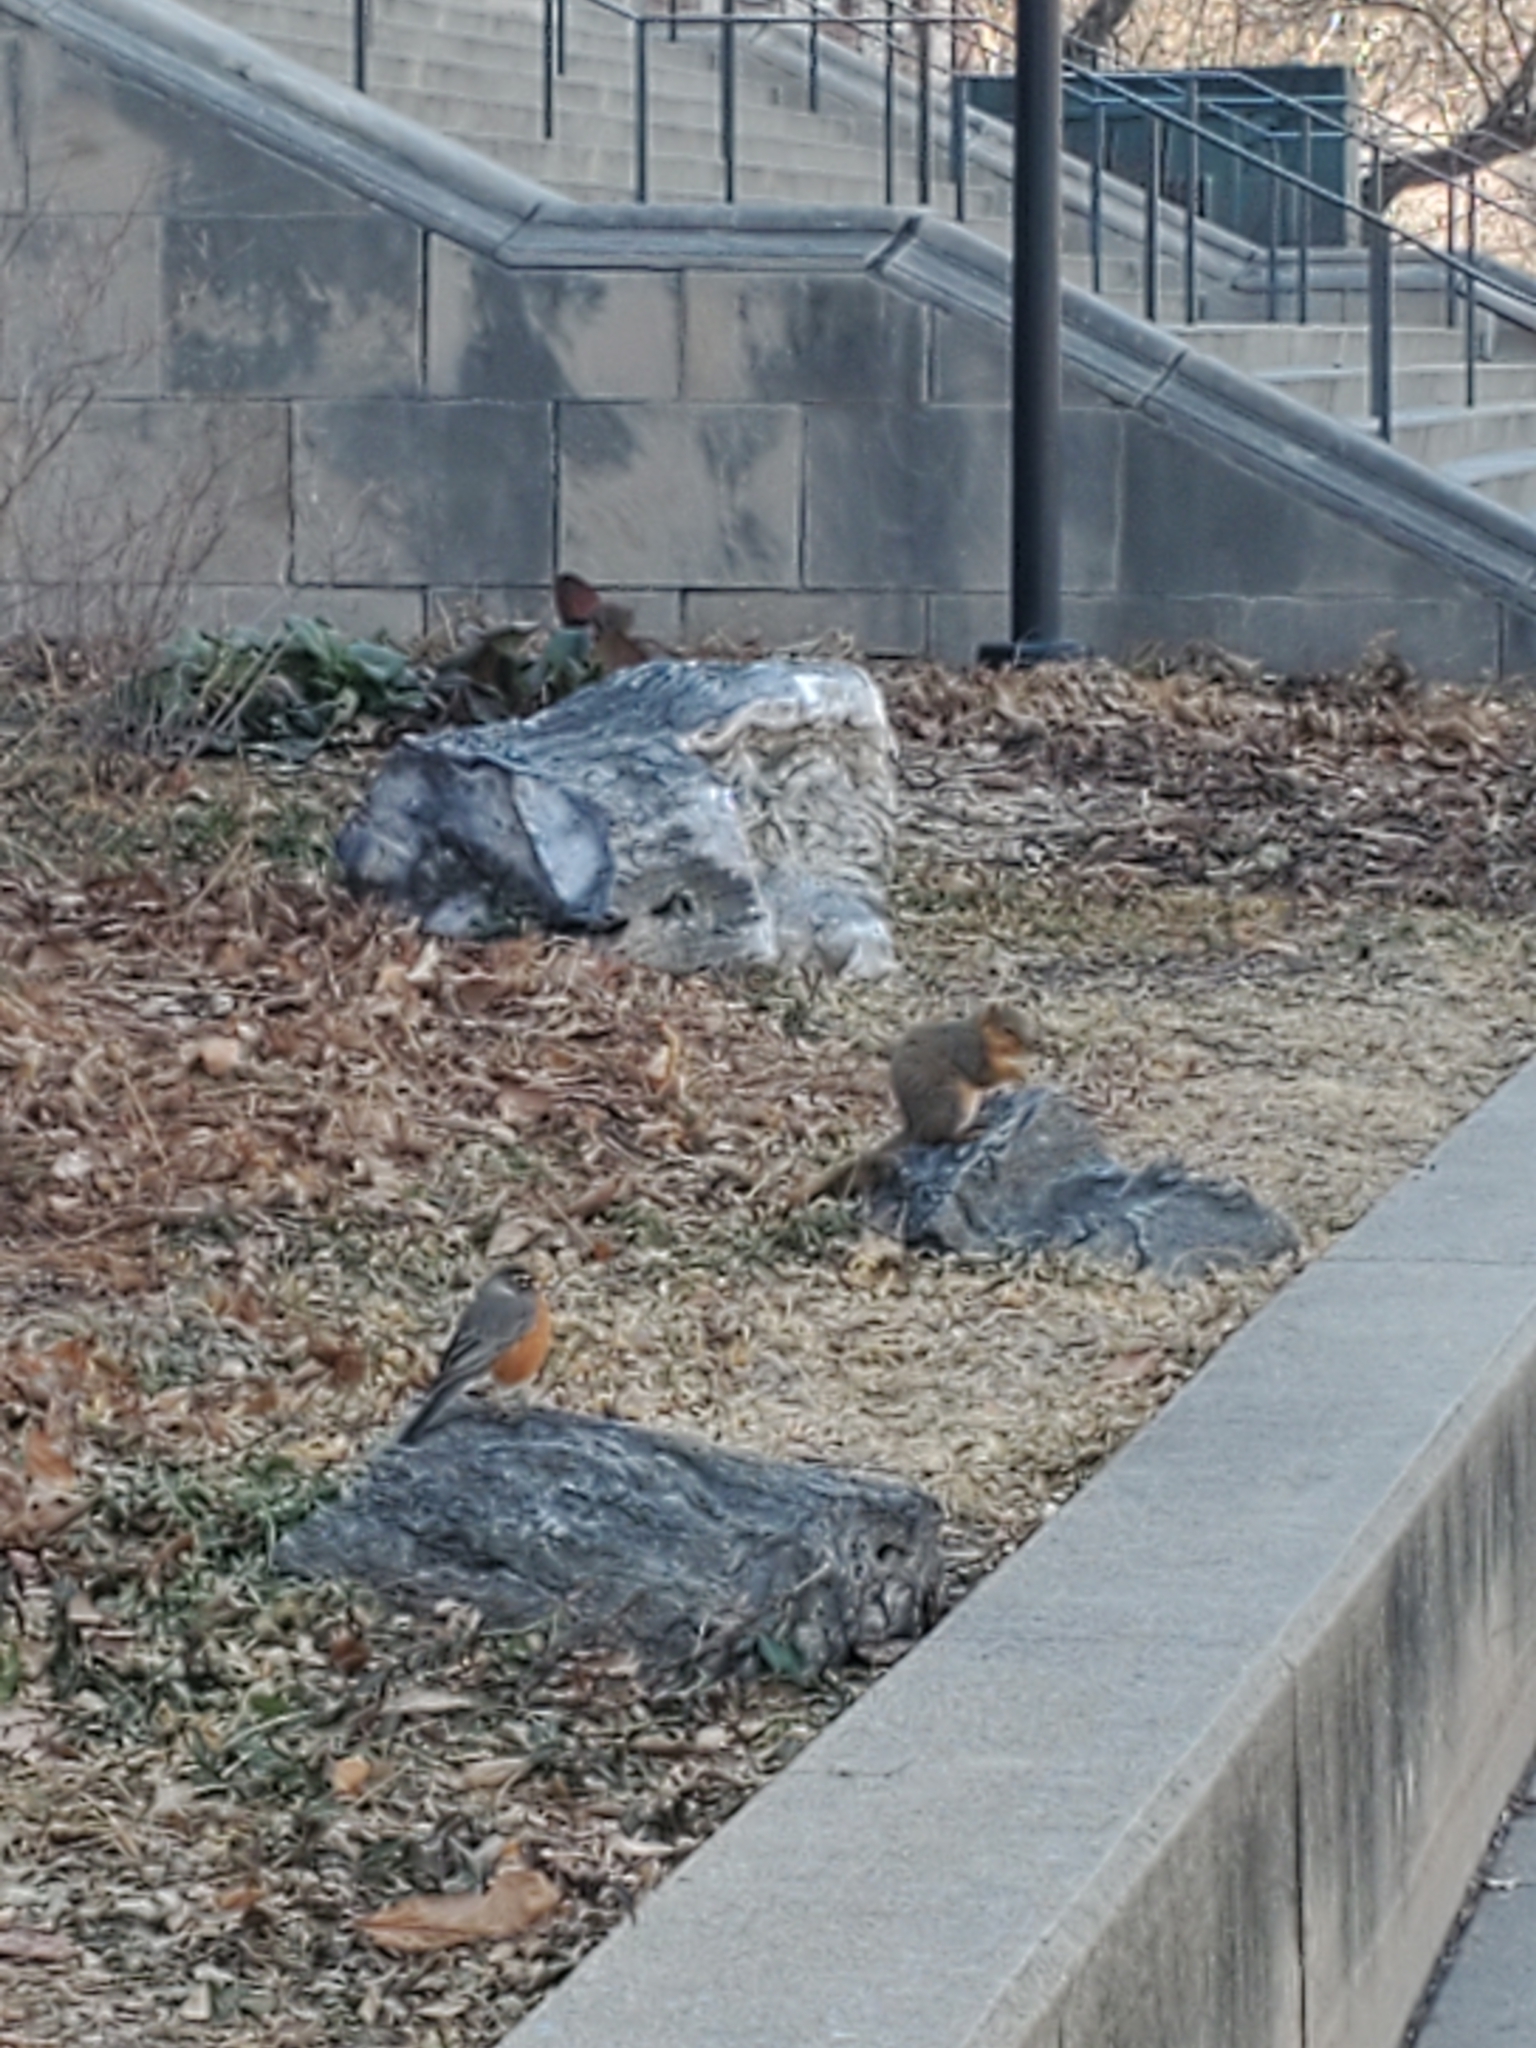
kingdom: Animalia
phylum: Chordata
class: Aves
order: Passeriformes
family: Turdidae
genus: Turdus
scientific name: Turdus migratorius
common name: American robin
